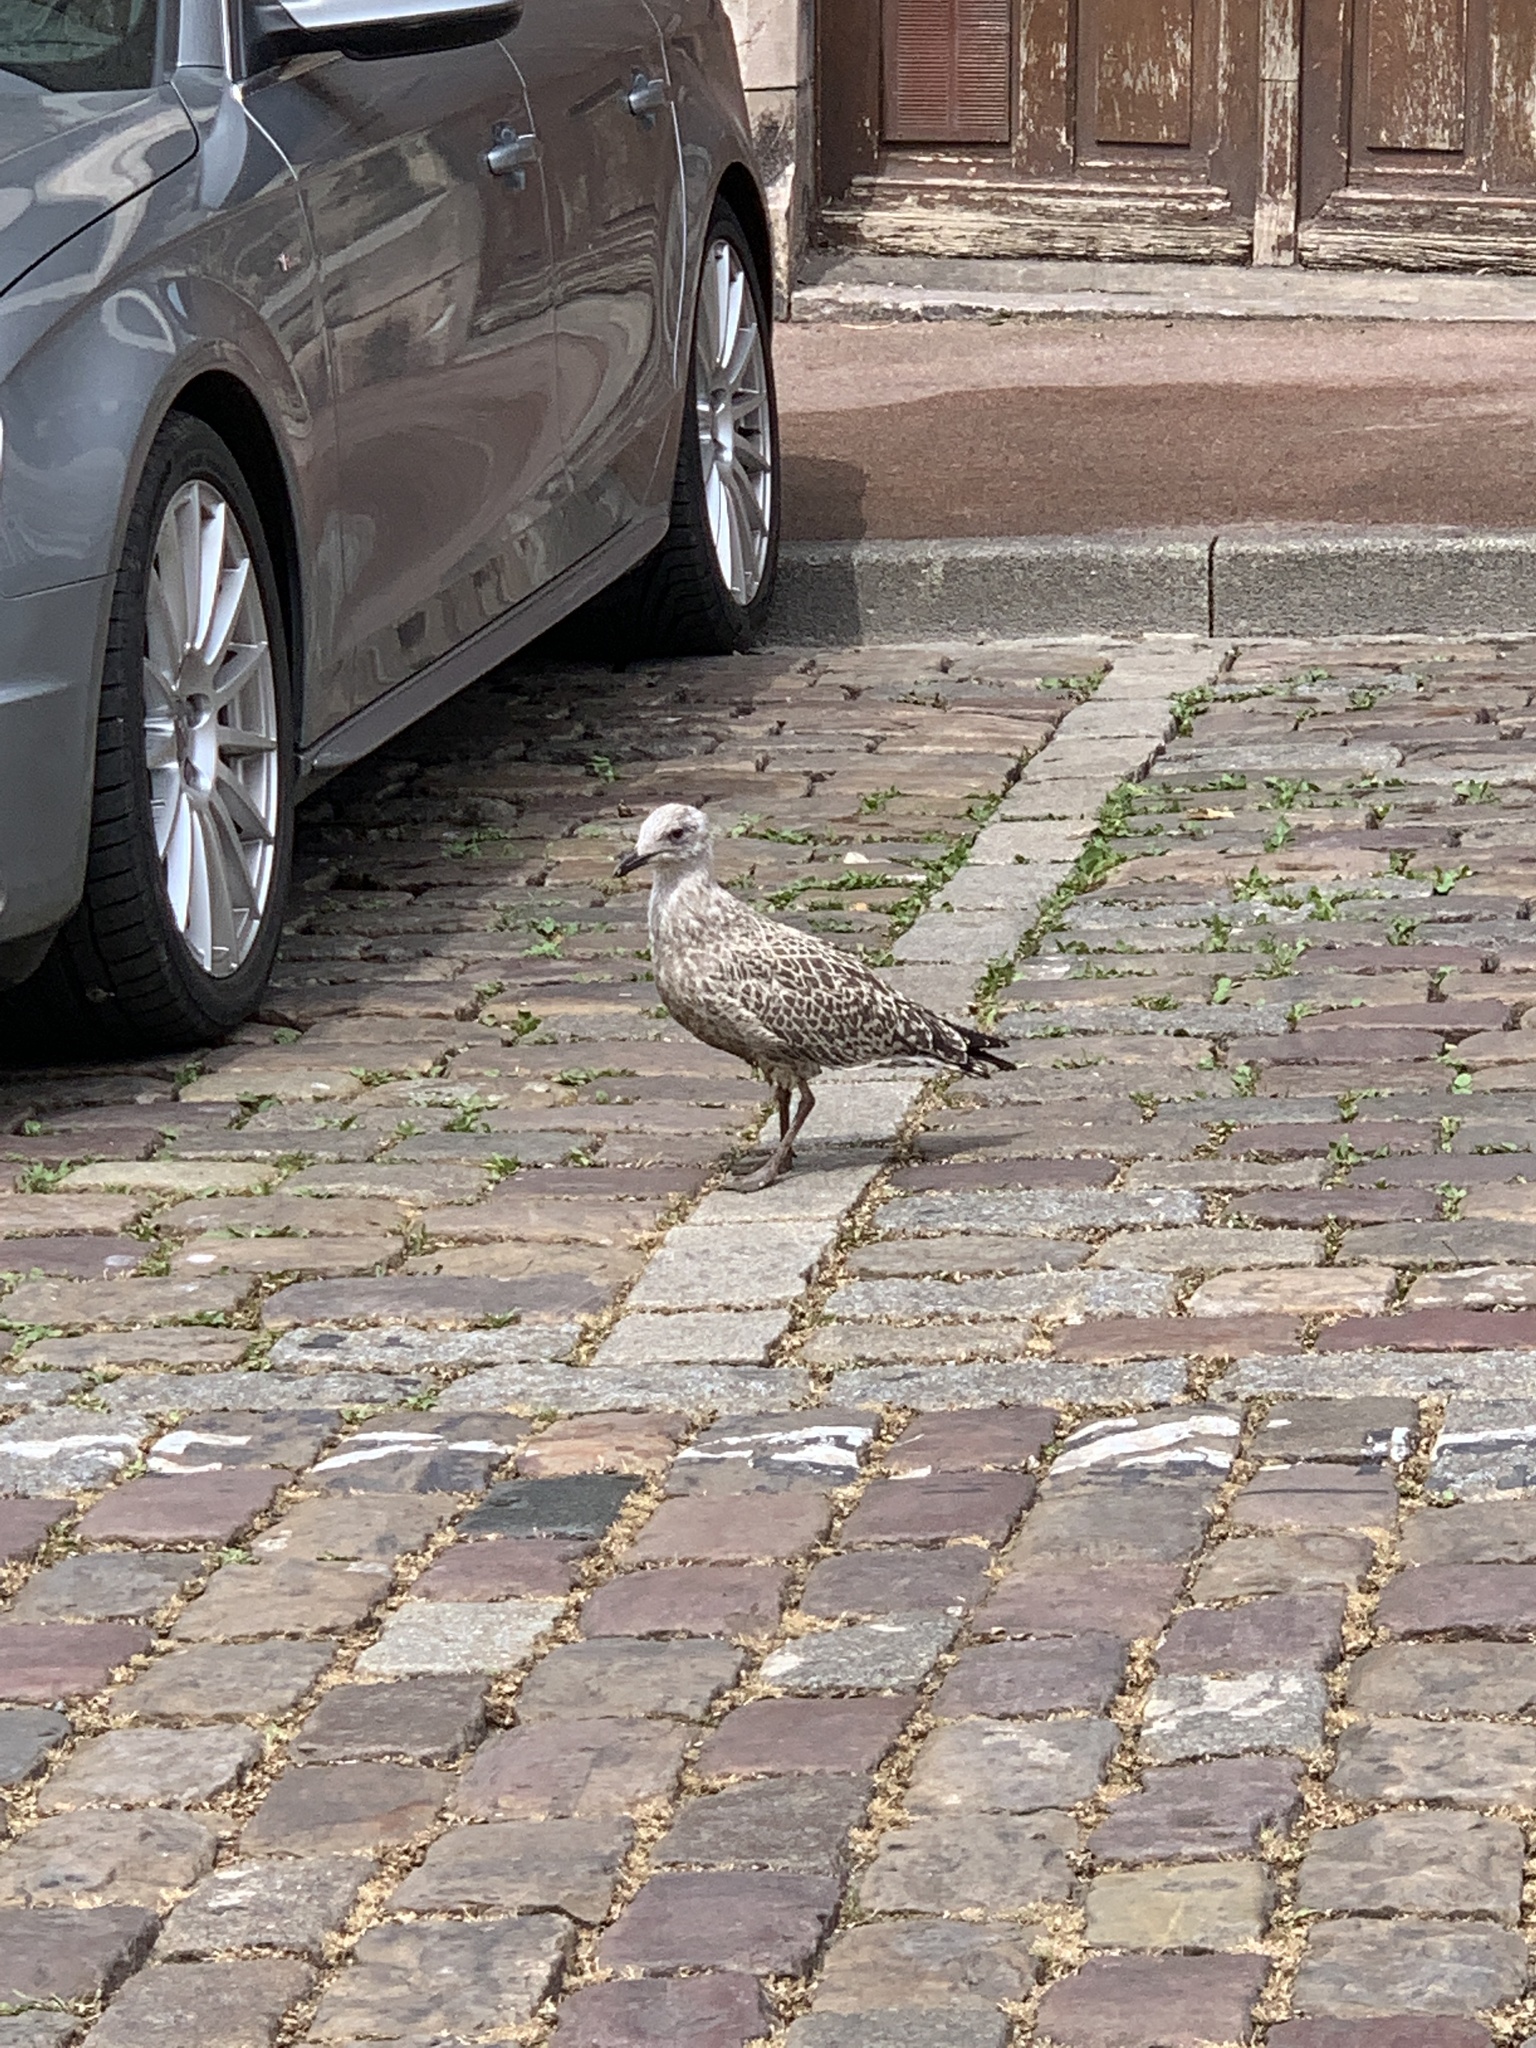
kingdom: Animalia
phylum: Chordata
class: Aves
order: Charadriiformes
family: Laridae
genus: Larus
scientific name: Larus argentatus
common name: Herring gull
